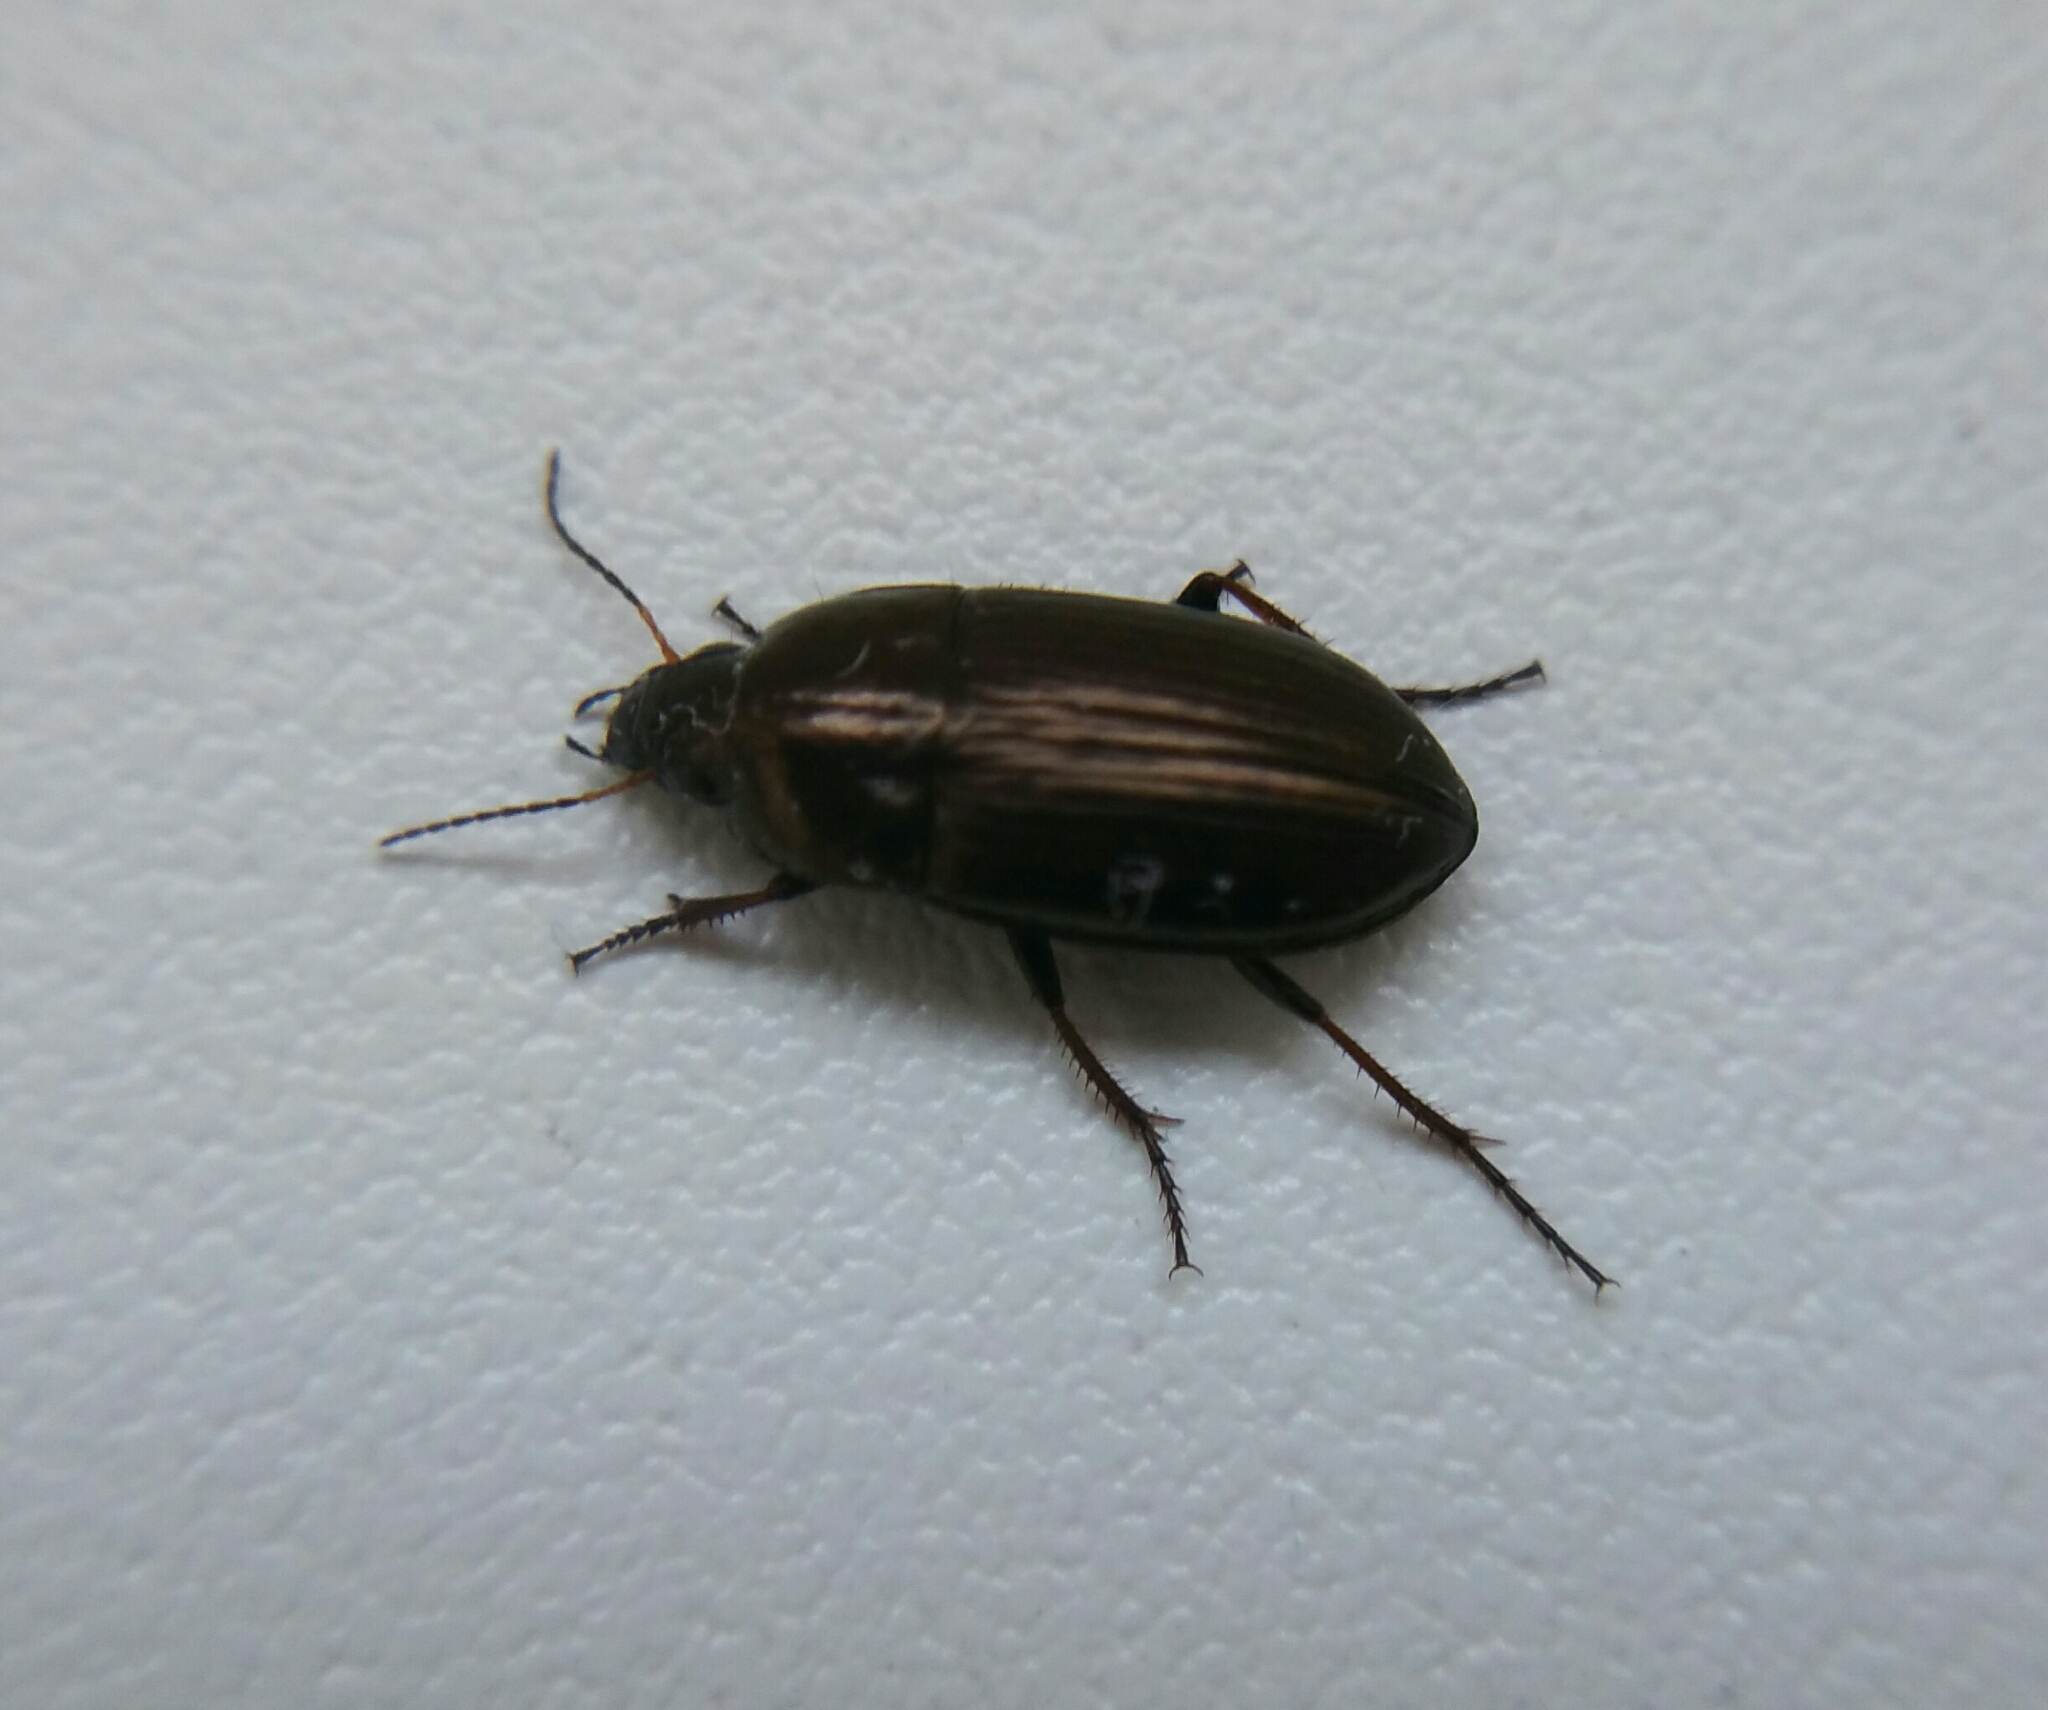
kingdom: Animalia
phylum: Arthropoda
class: Insecta
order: Coleoptera
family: Carabidae
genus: Amara
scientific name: Amara aenea
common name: Common sun beetle
